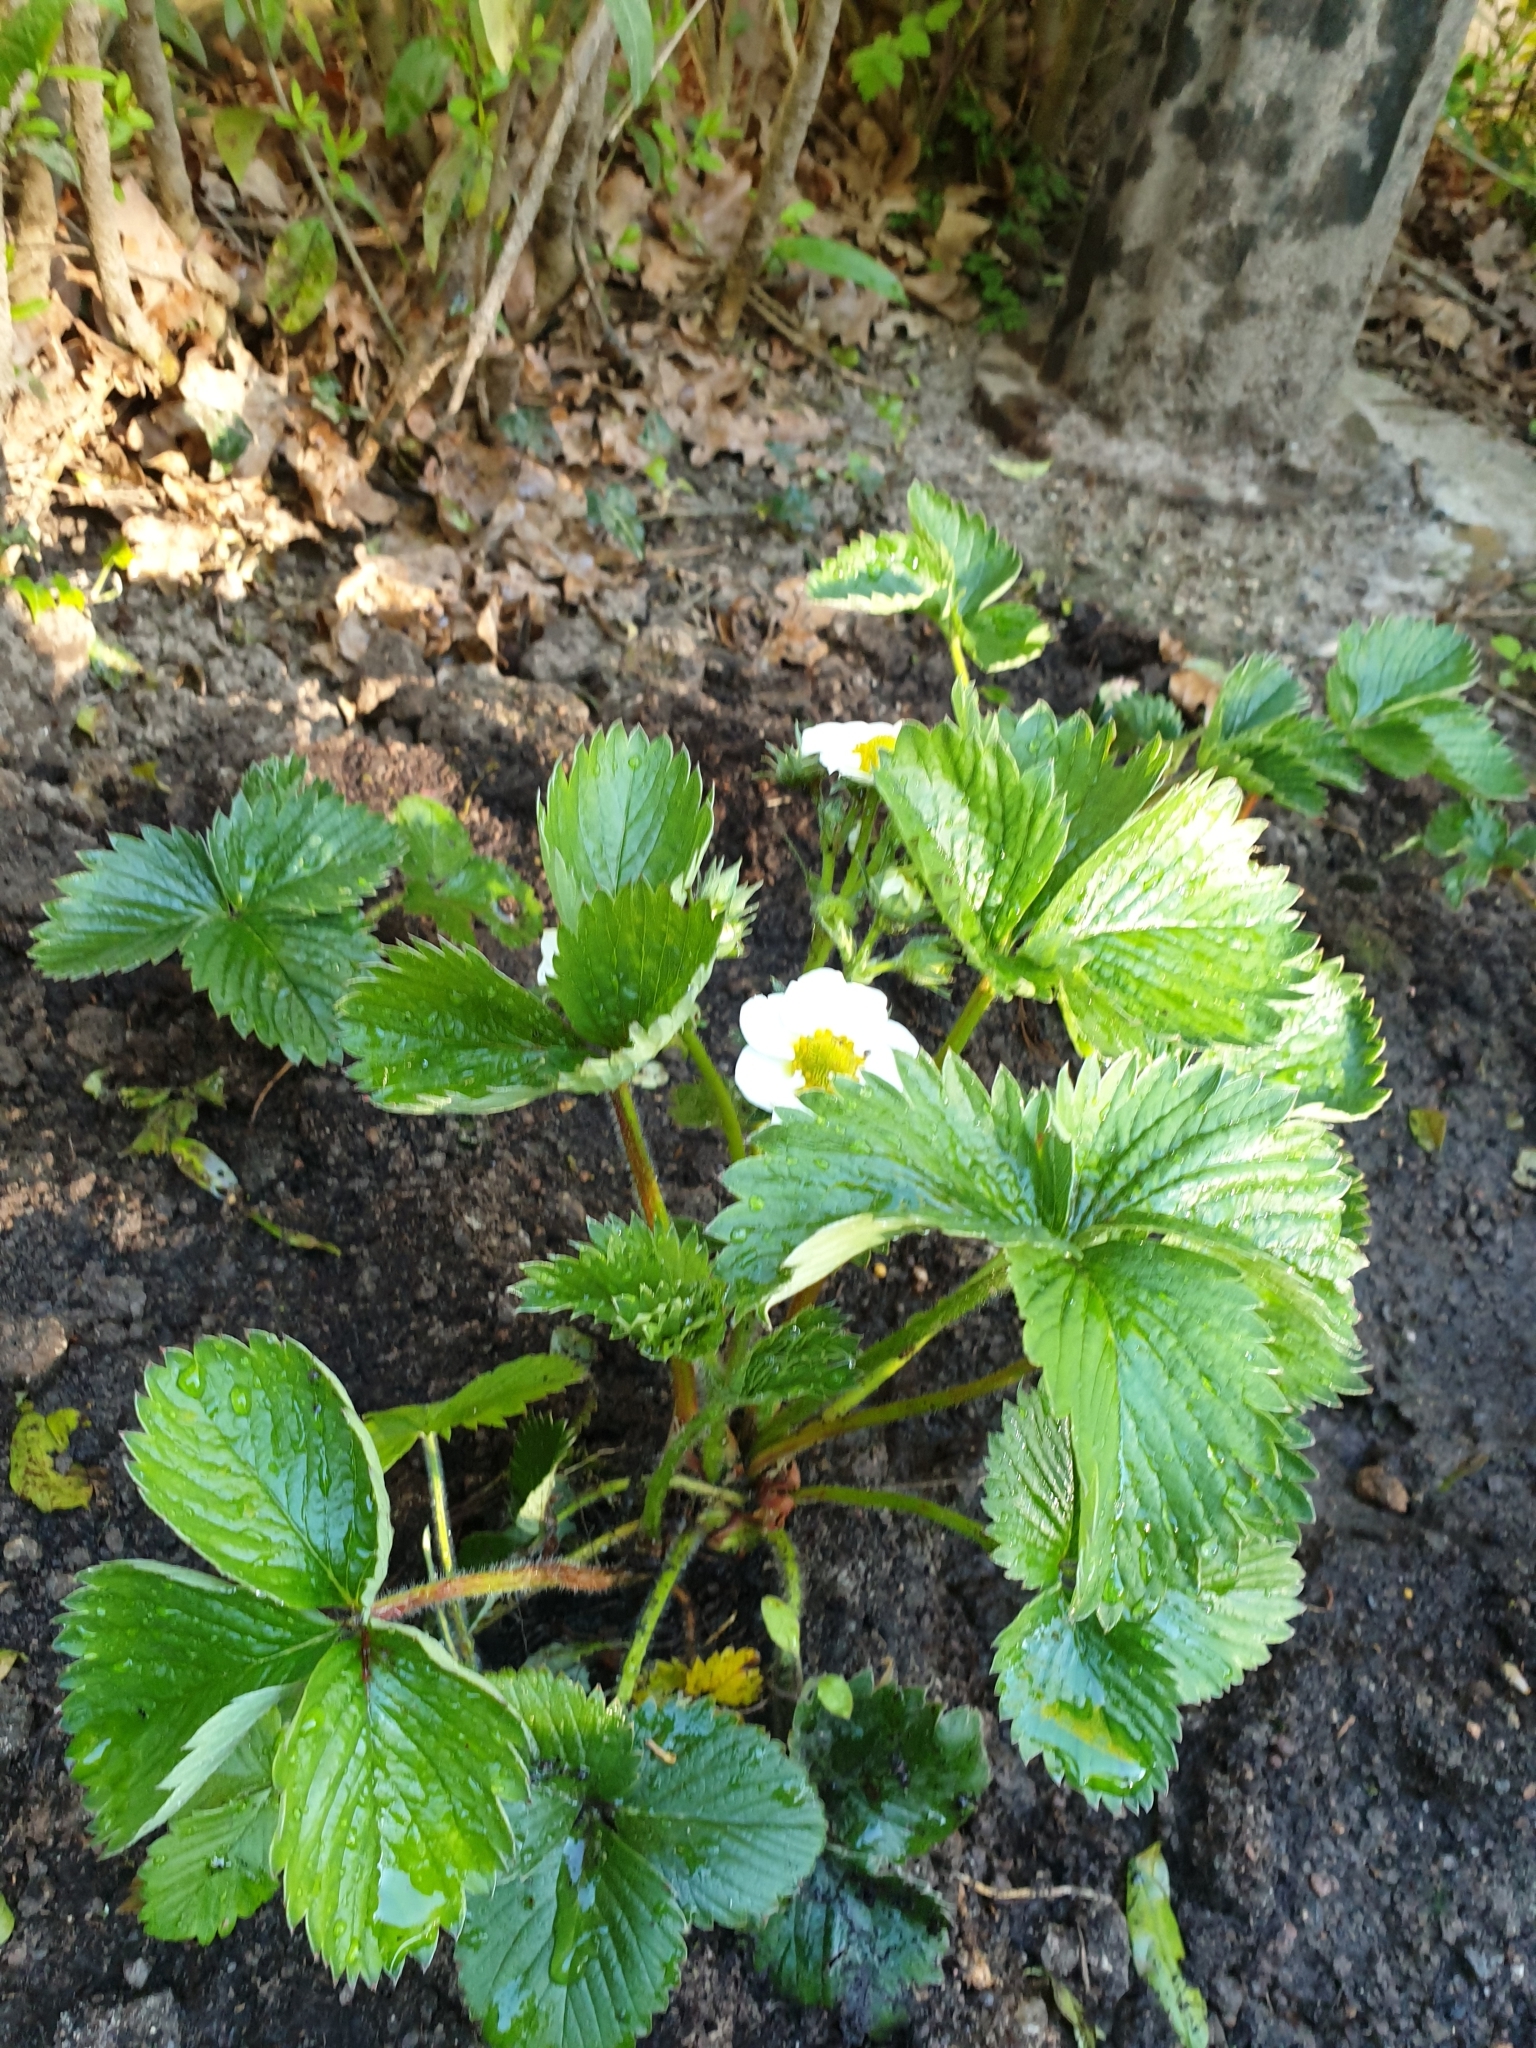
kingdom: Plantae
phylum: Tracheophyta
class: Magnoliopsida
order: Rosales
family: Rosaceae
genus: Fragaria
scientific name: Fragaria vesca
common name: Wild strawberry
